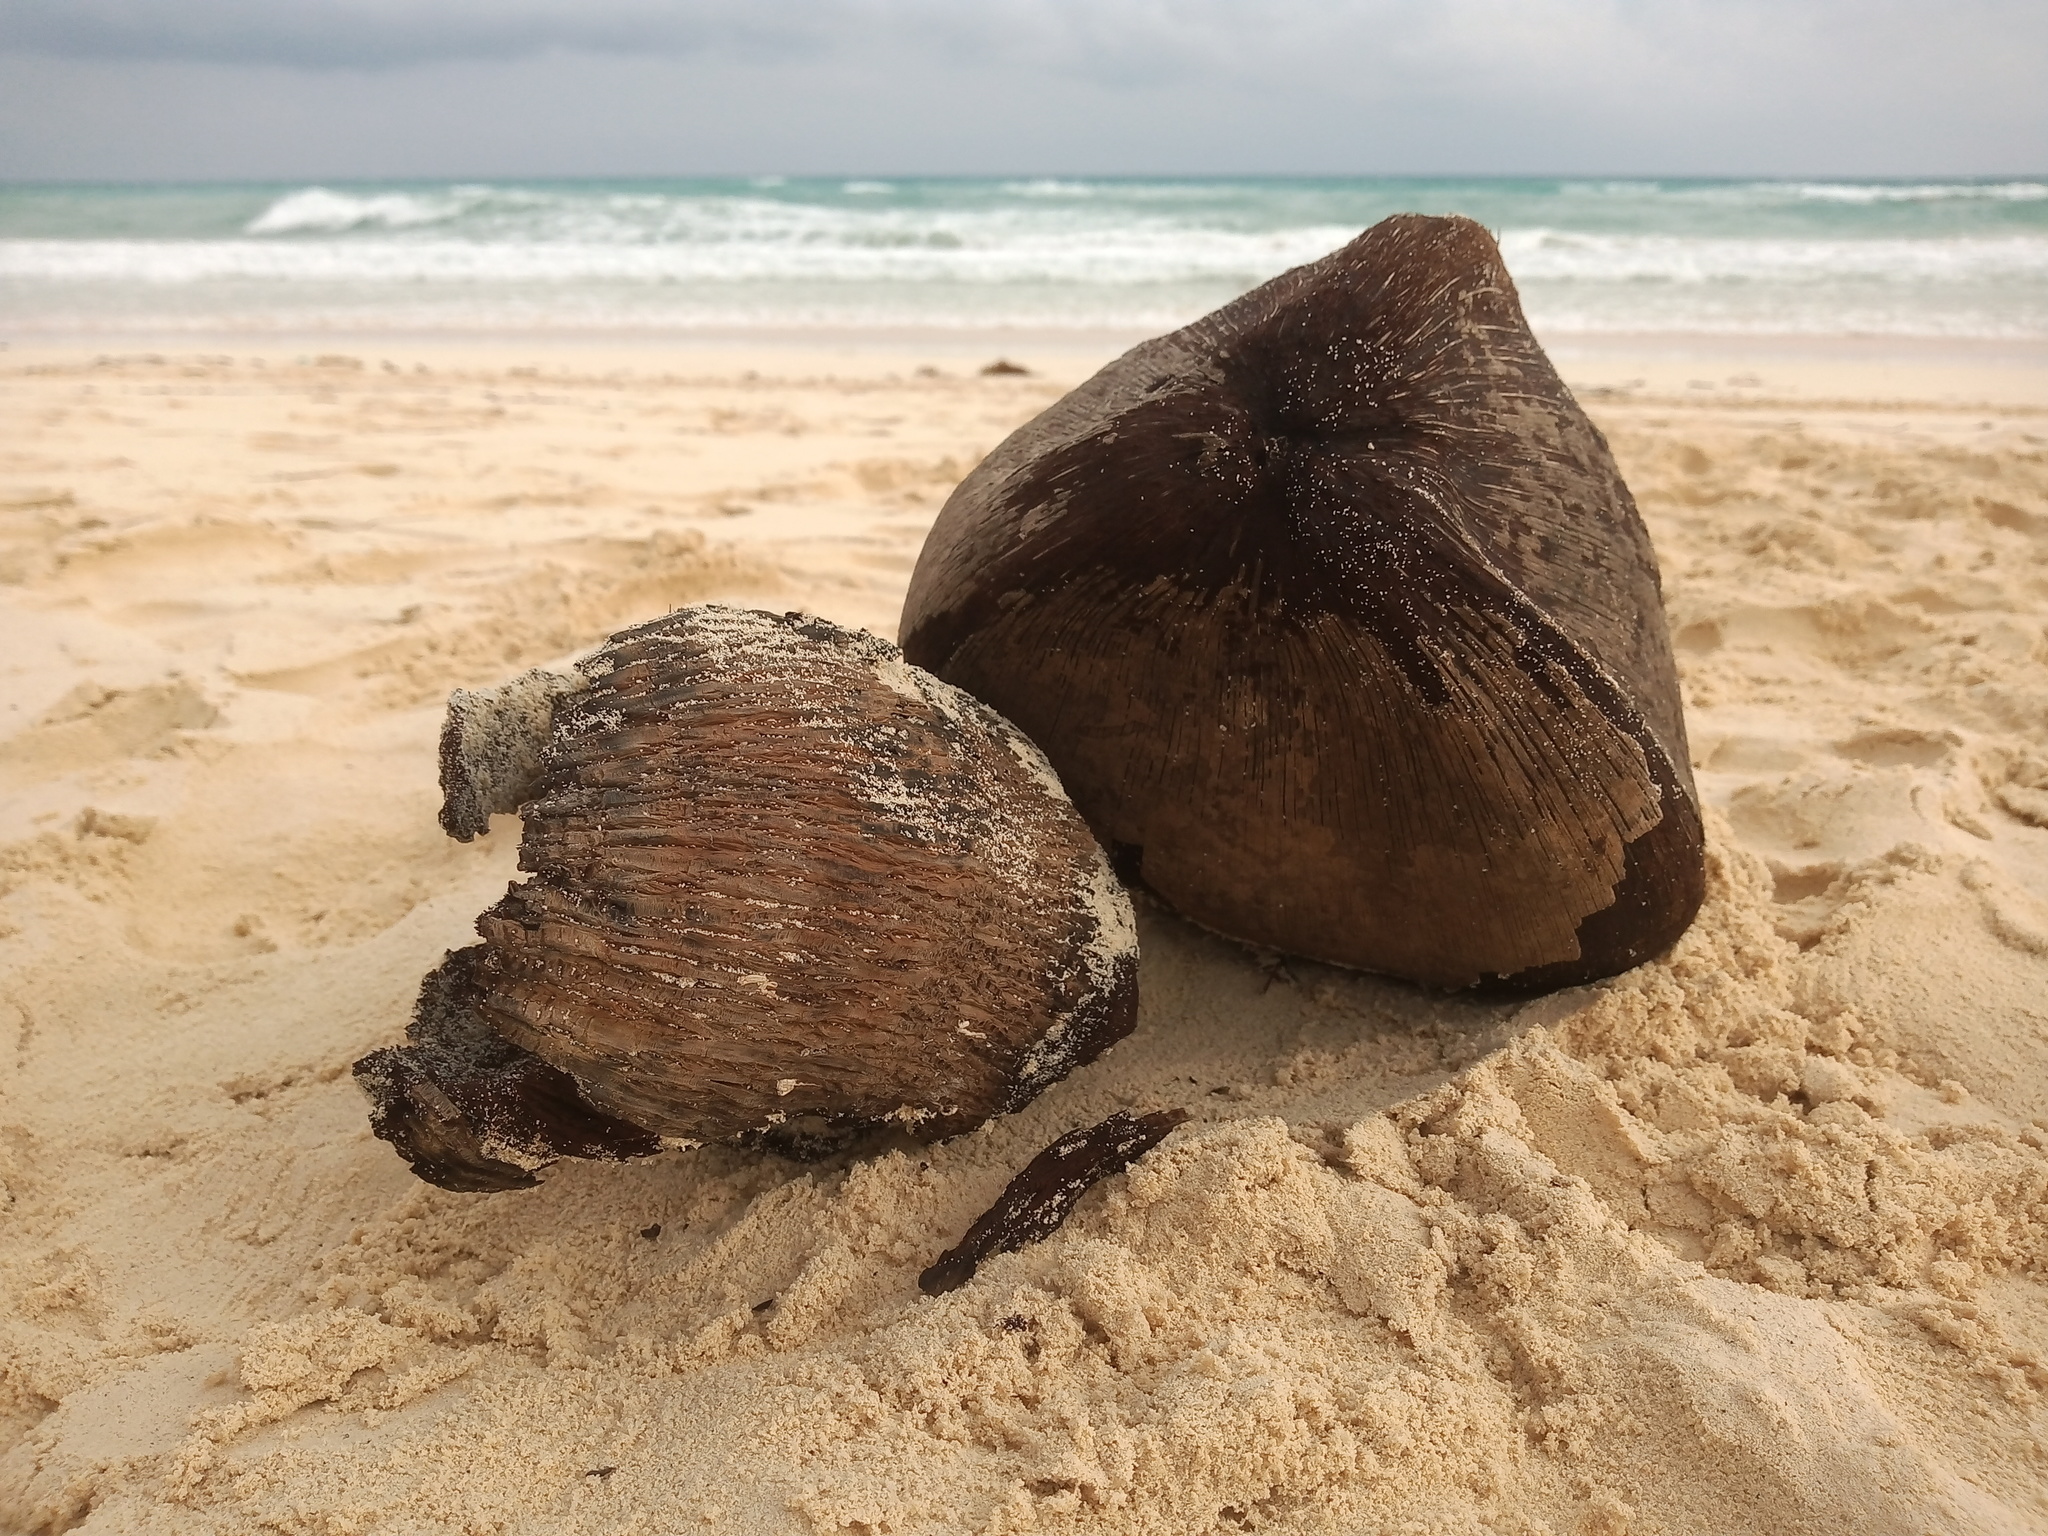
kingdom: Plantae
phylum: Tracheophyta
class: Liliopsida
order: Arecales
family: Arecaceae
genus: Cocos
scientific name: Cocos nucifera
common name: Coconut palm
